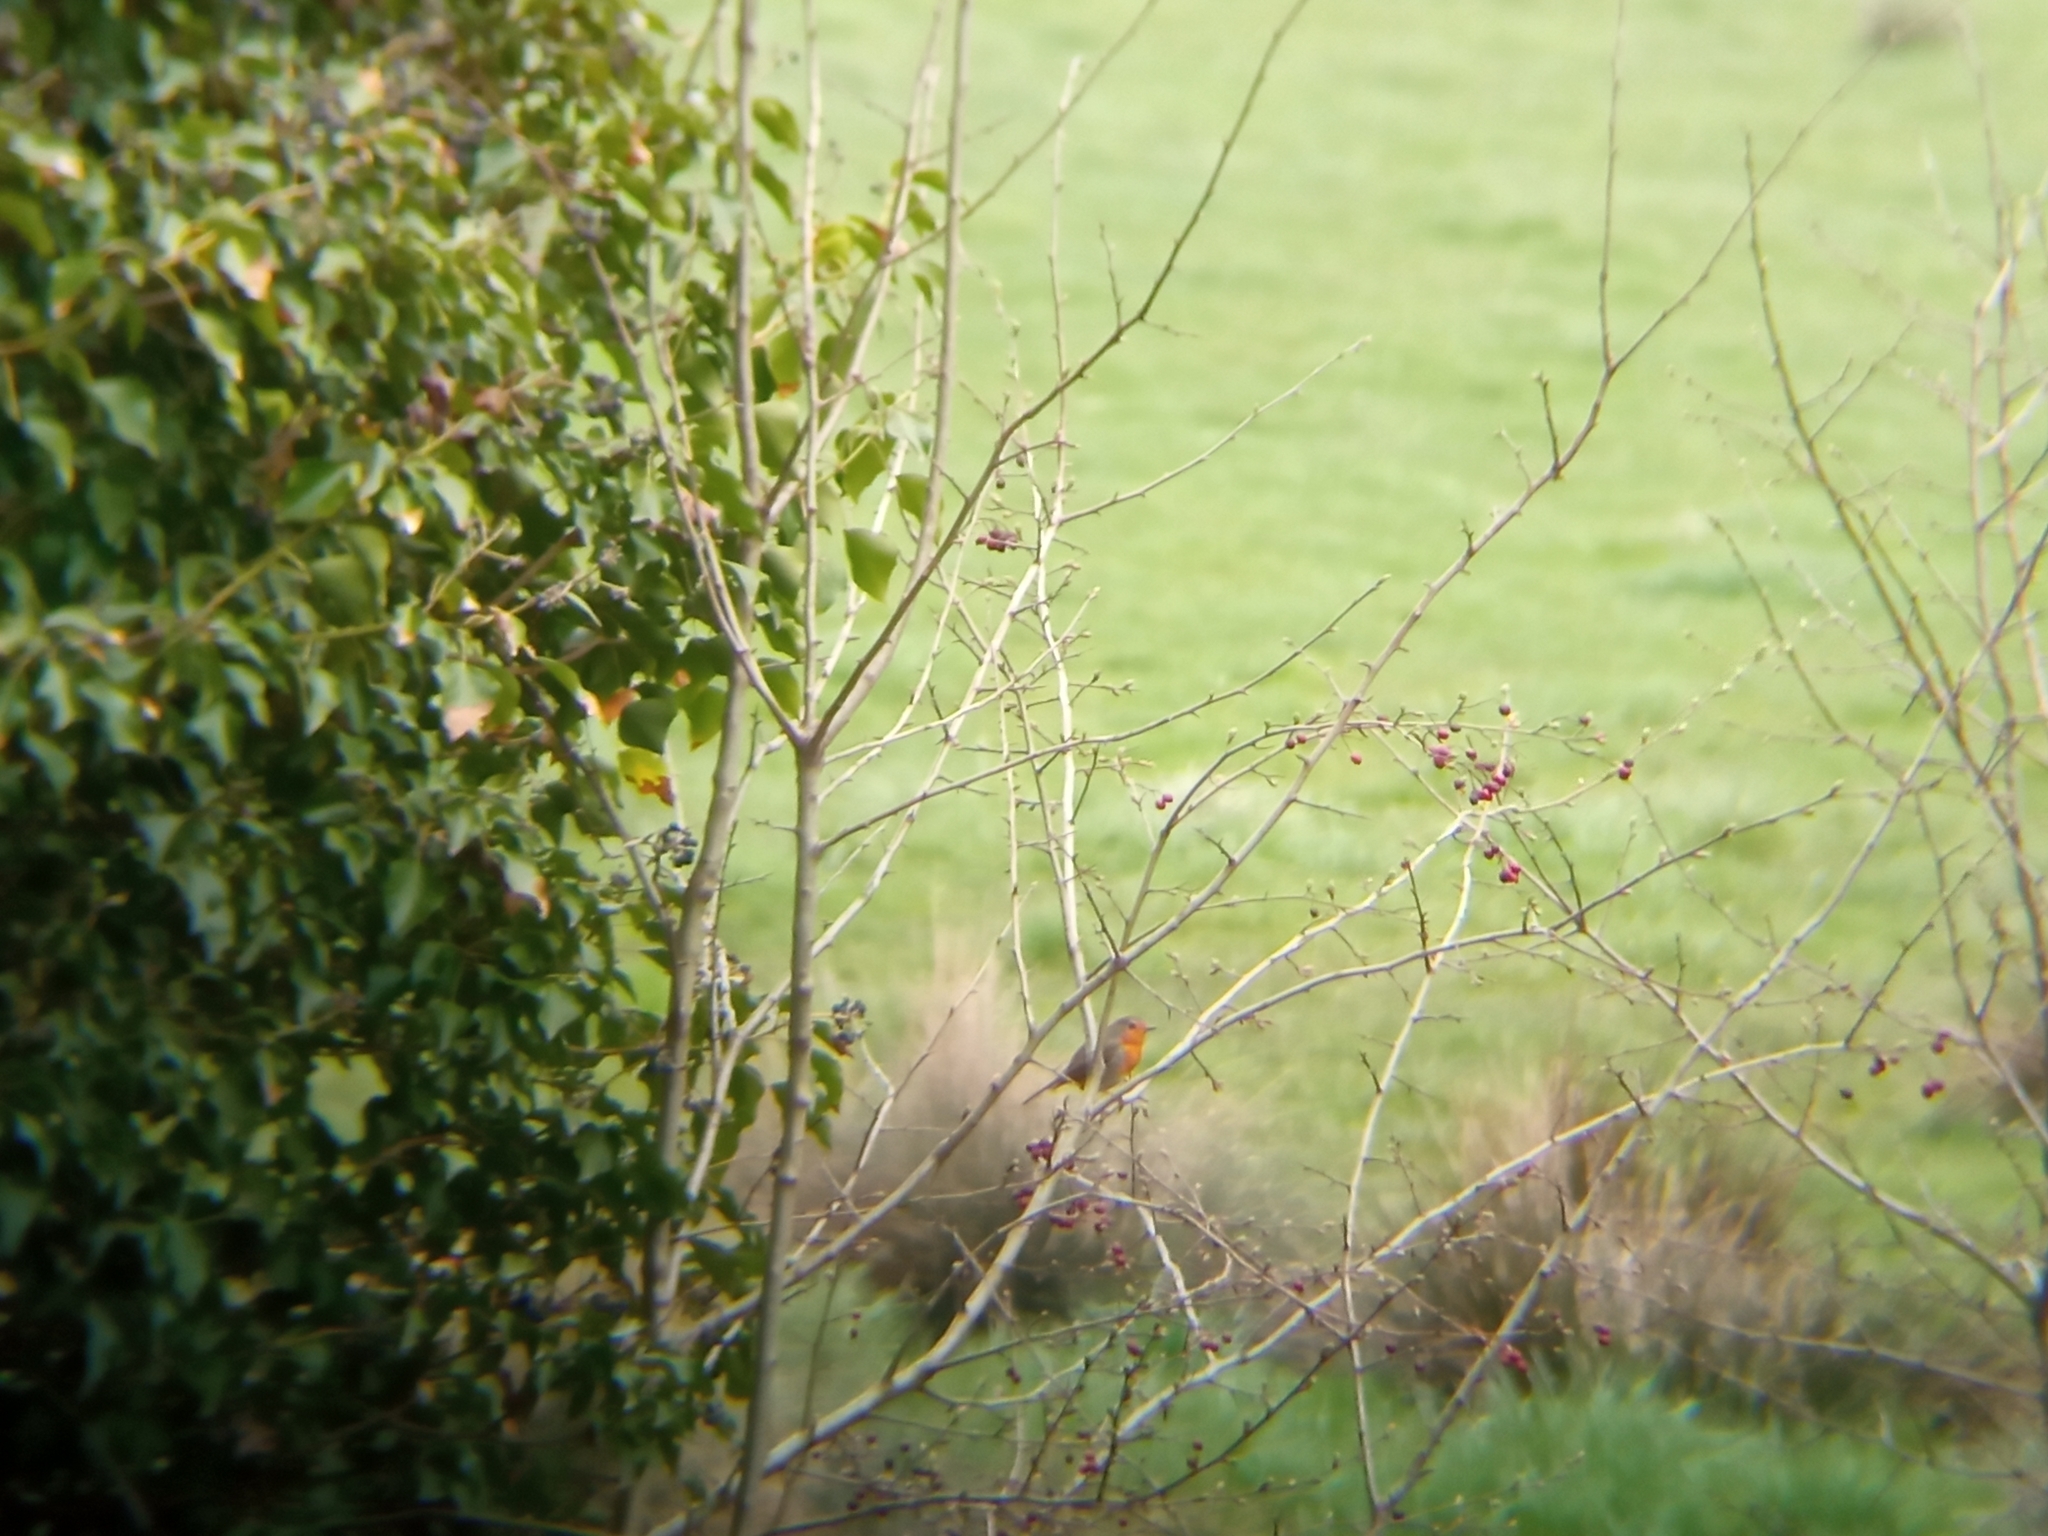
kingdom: Animalia
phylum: Chordata
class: Aves
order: Passeriformes
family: Muscicapidae
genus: Erithacus
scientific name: Erithacus rubecula
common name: European robin
